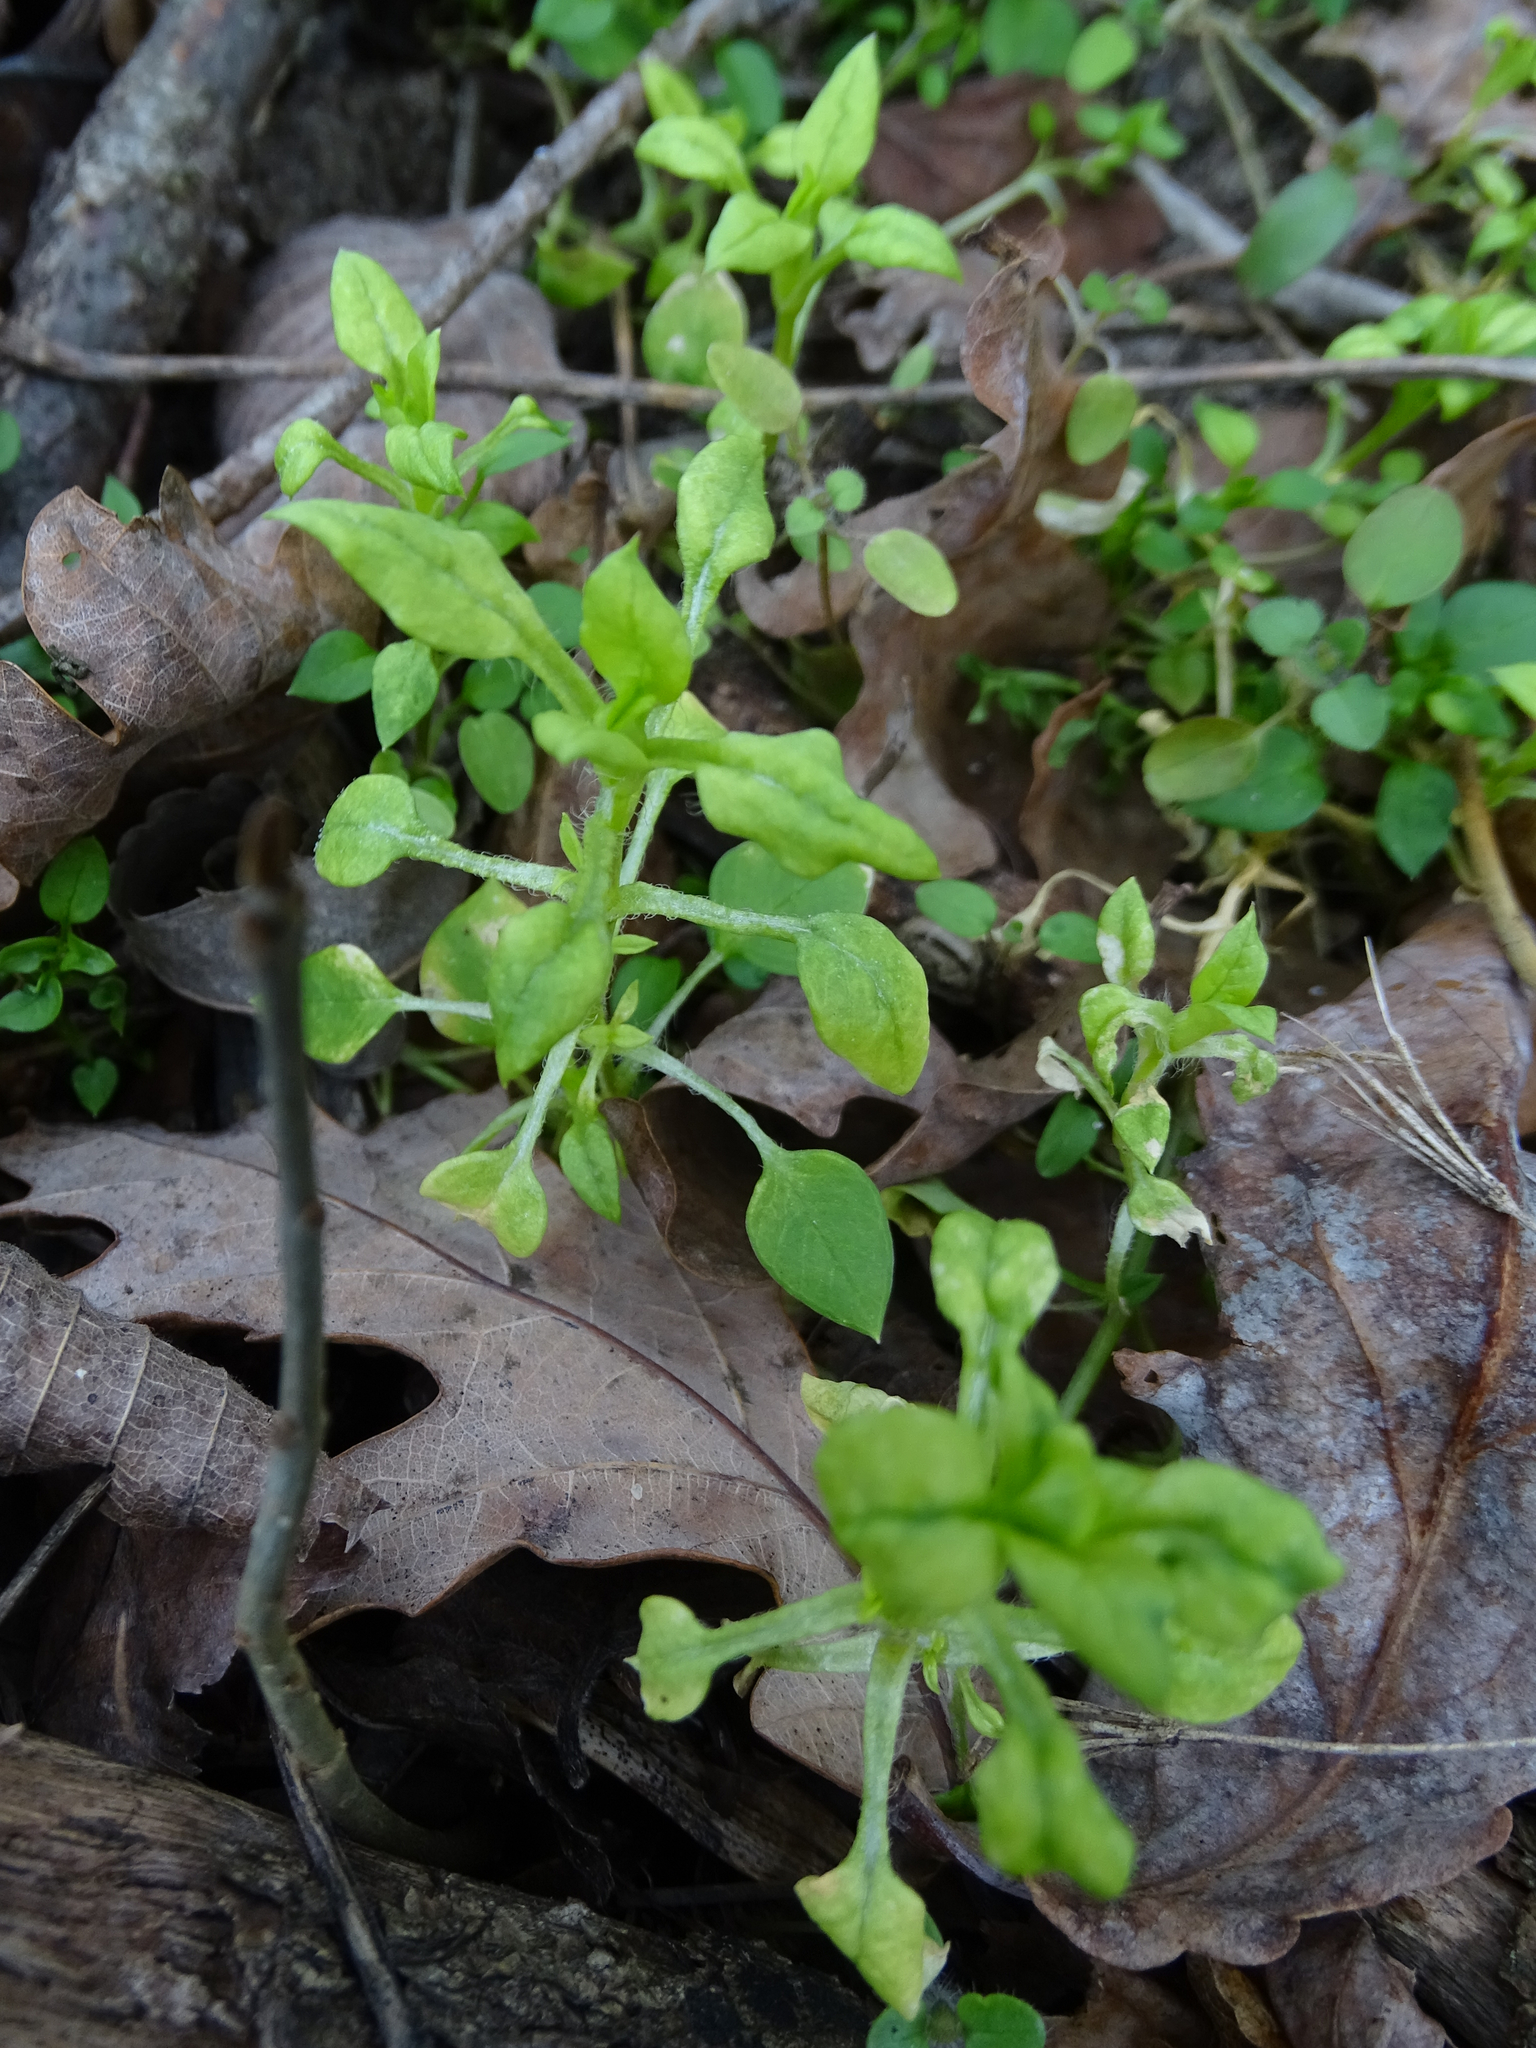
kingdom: Chromista
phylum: Oomycota
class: Peronosporea
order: Peronosporales
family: Peronosporaceae
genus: Peronospora
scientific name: Peronospora alsinearum
